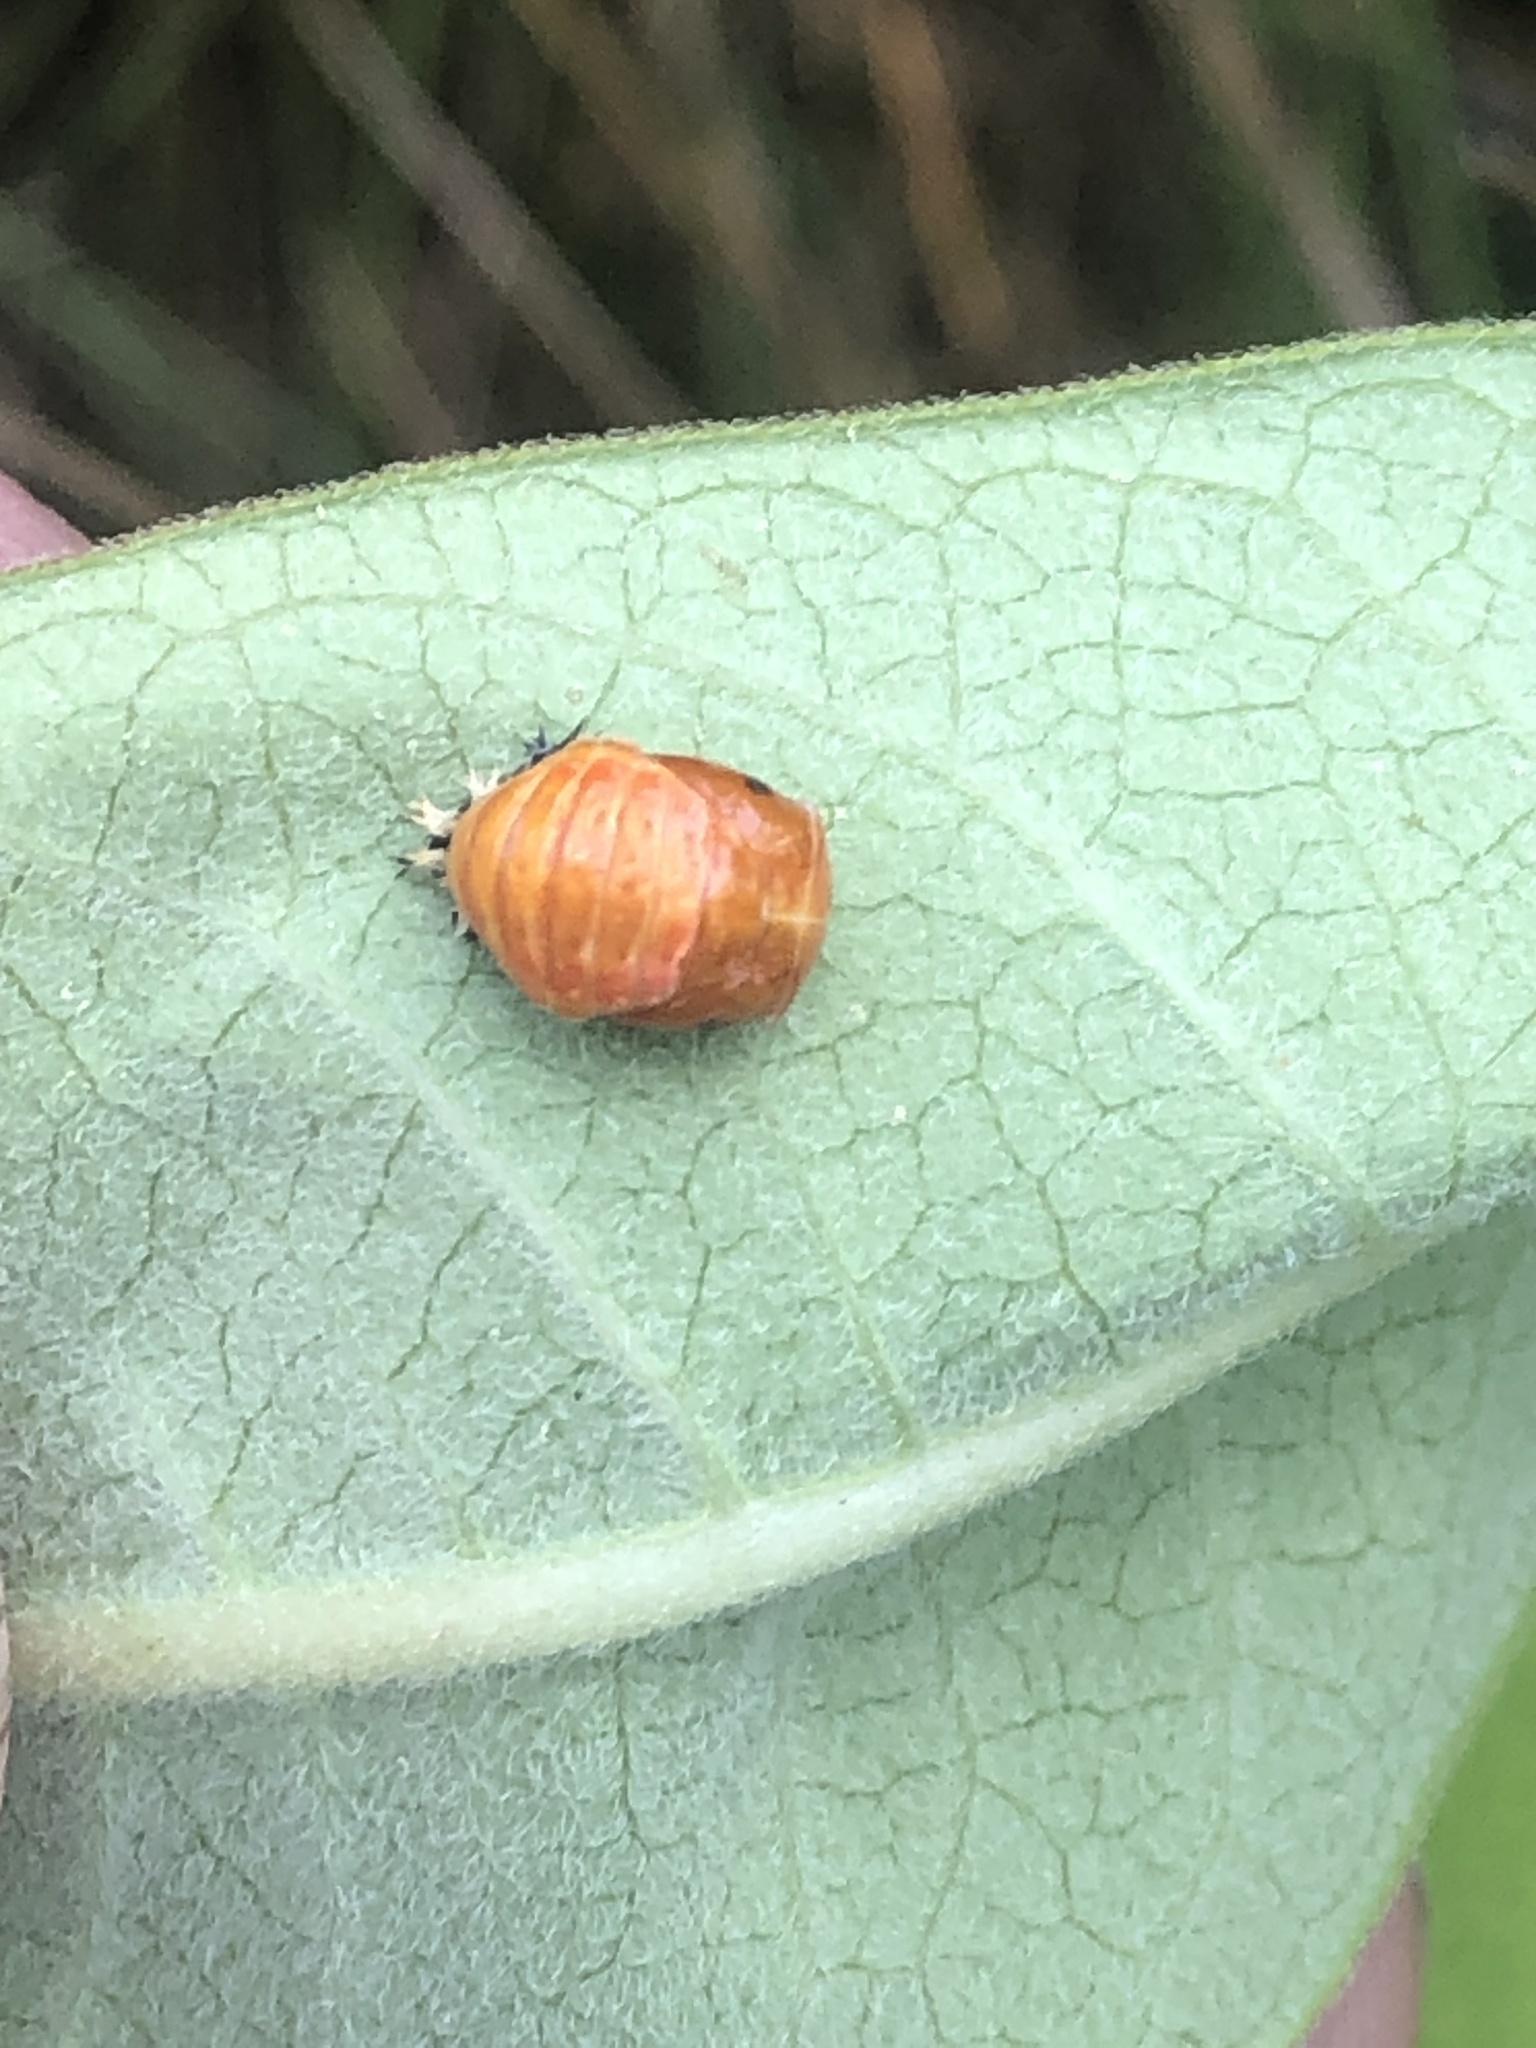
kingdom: Animalia
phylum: Arthropoda
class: Insecta
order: Coleoptera
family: Coccinellidae
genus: Harmonia
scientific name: Harmonia axyridis
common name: Harlequin ladybird
